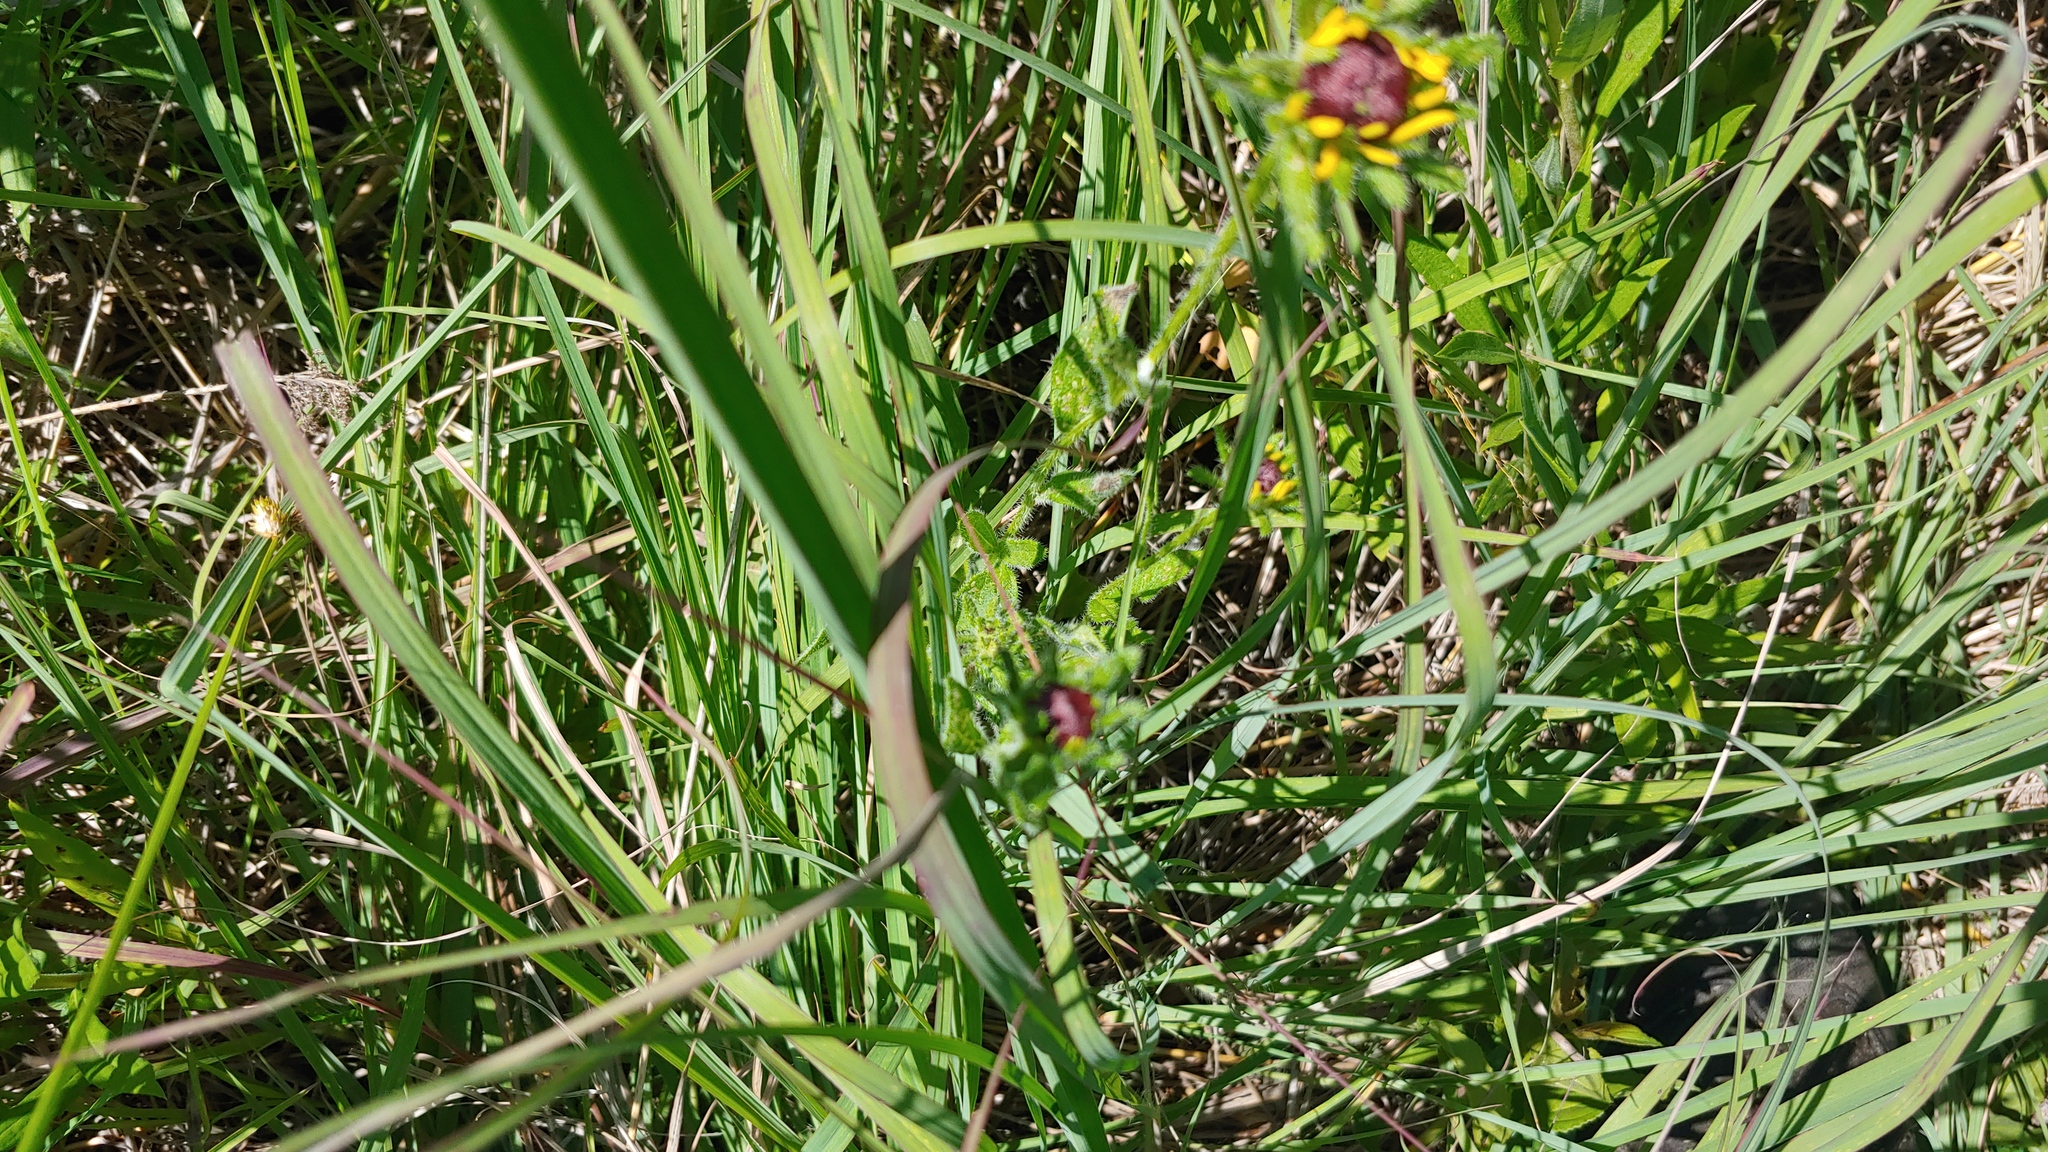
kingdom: Plantae
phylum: Tracheophyta
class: Magnoliopsida
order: Asterales
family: Asteraceae
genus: Rudbeckia
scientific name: Rudbeckia hirta
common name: Black-eyed-susan
